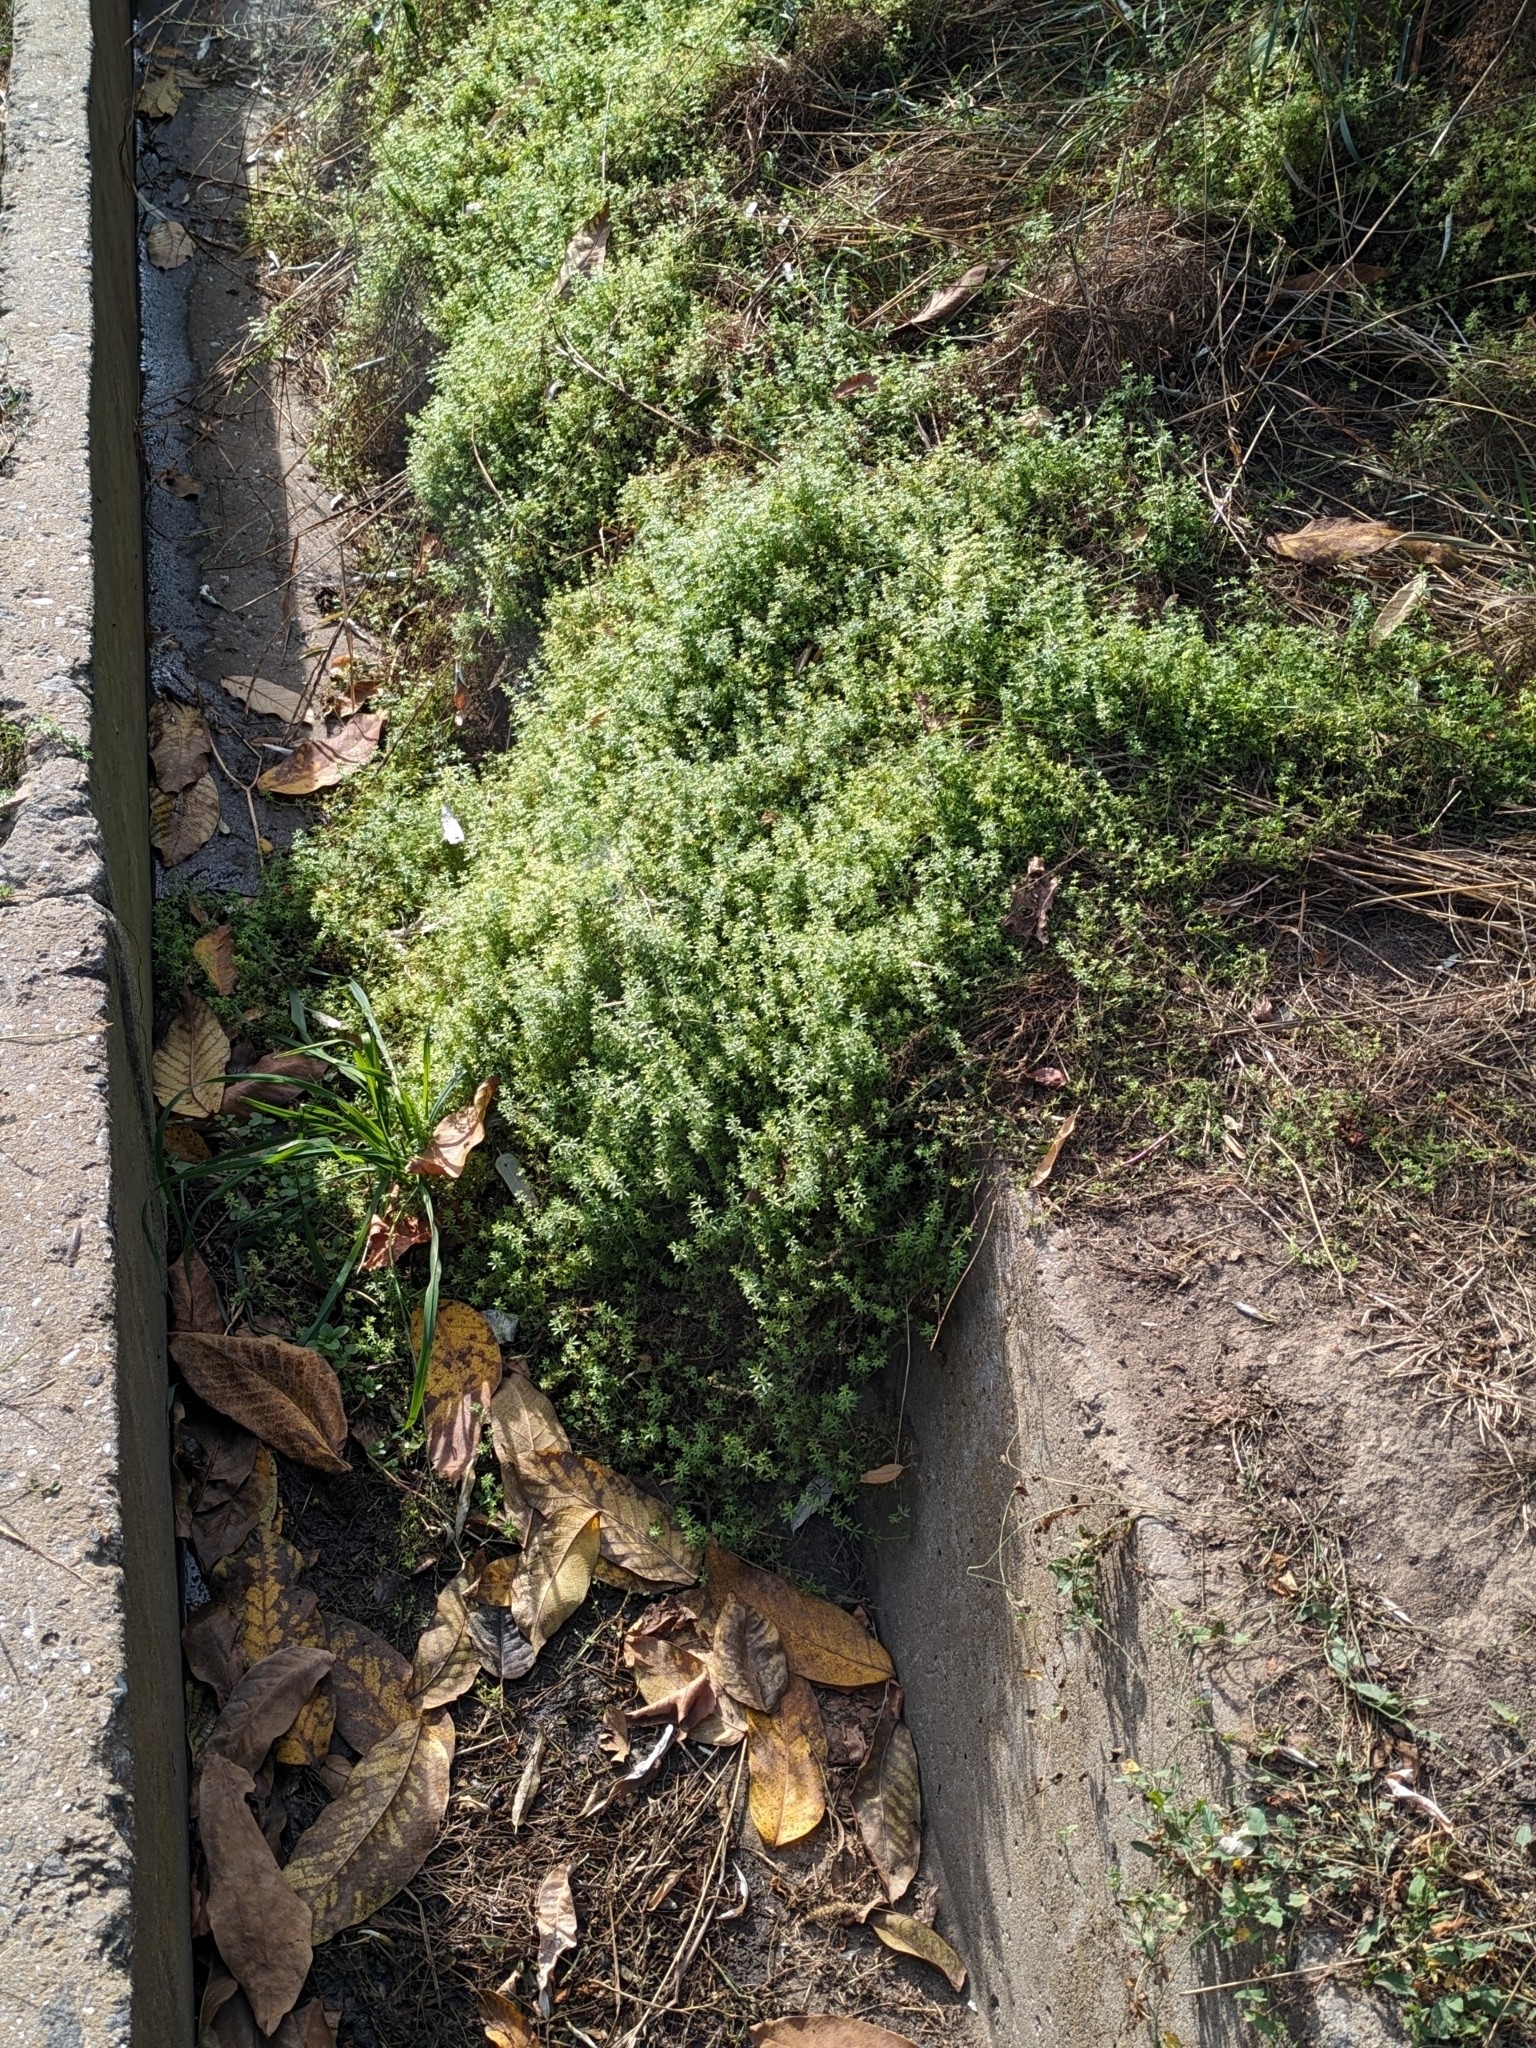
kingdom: Plantae
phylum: Tracheophyta
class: Magnoliopsida
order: Gentianales
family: Rubiaceae
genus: Galium
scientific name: Galium humifusum
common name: Spreading bedstraw
